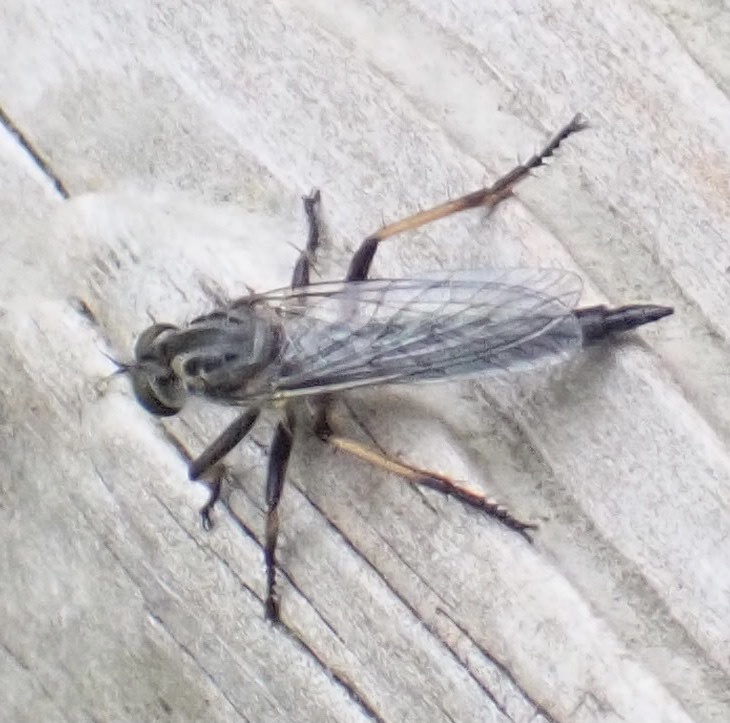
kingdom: Animalia
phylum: Arthropoda
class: Insecta
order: Diptera
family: Asilidae
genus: Neoitamus
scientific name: Neoitamus cyanurus
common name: Common awl robberfly
